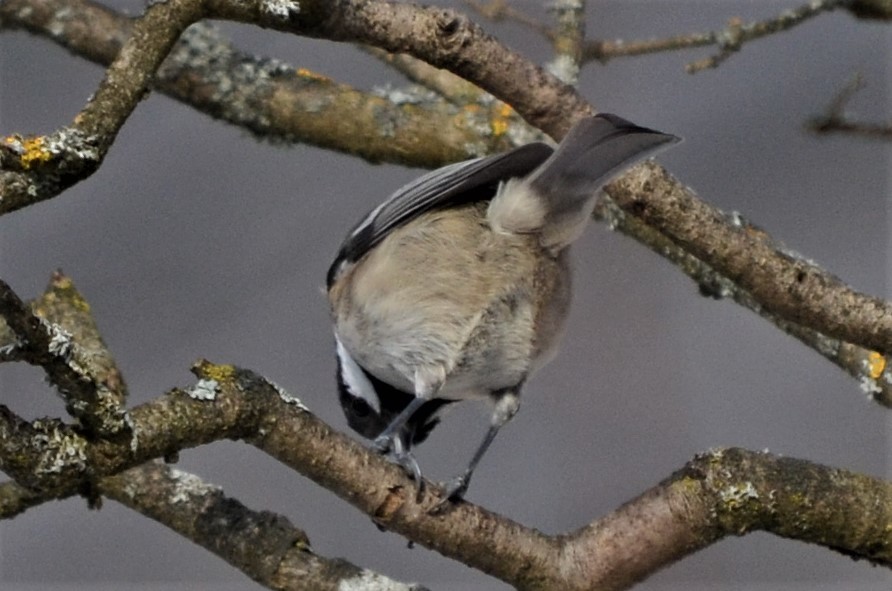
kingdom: Animalia
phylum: Chordata
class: Aves
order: Passeriformes
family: Paridae
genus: Periparus
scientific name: Periparus ater
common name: Coal tit
